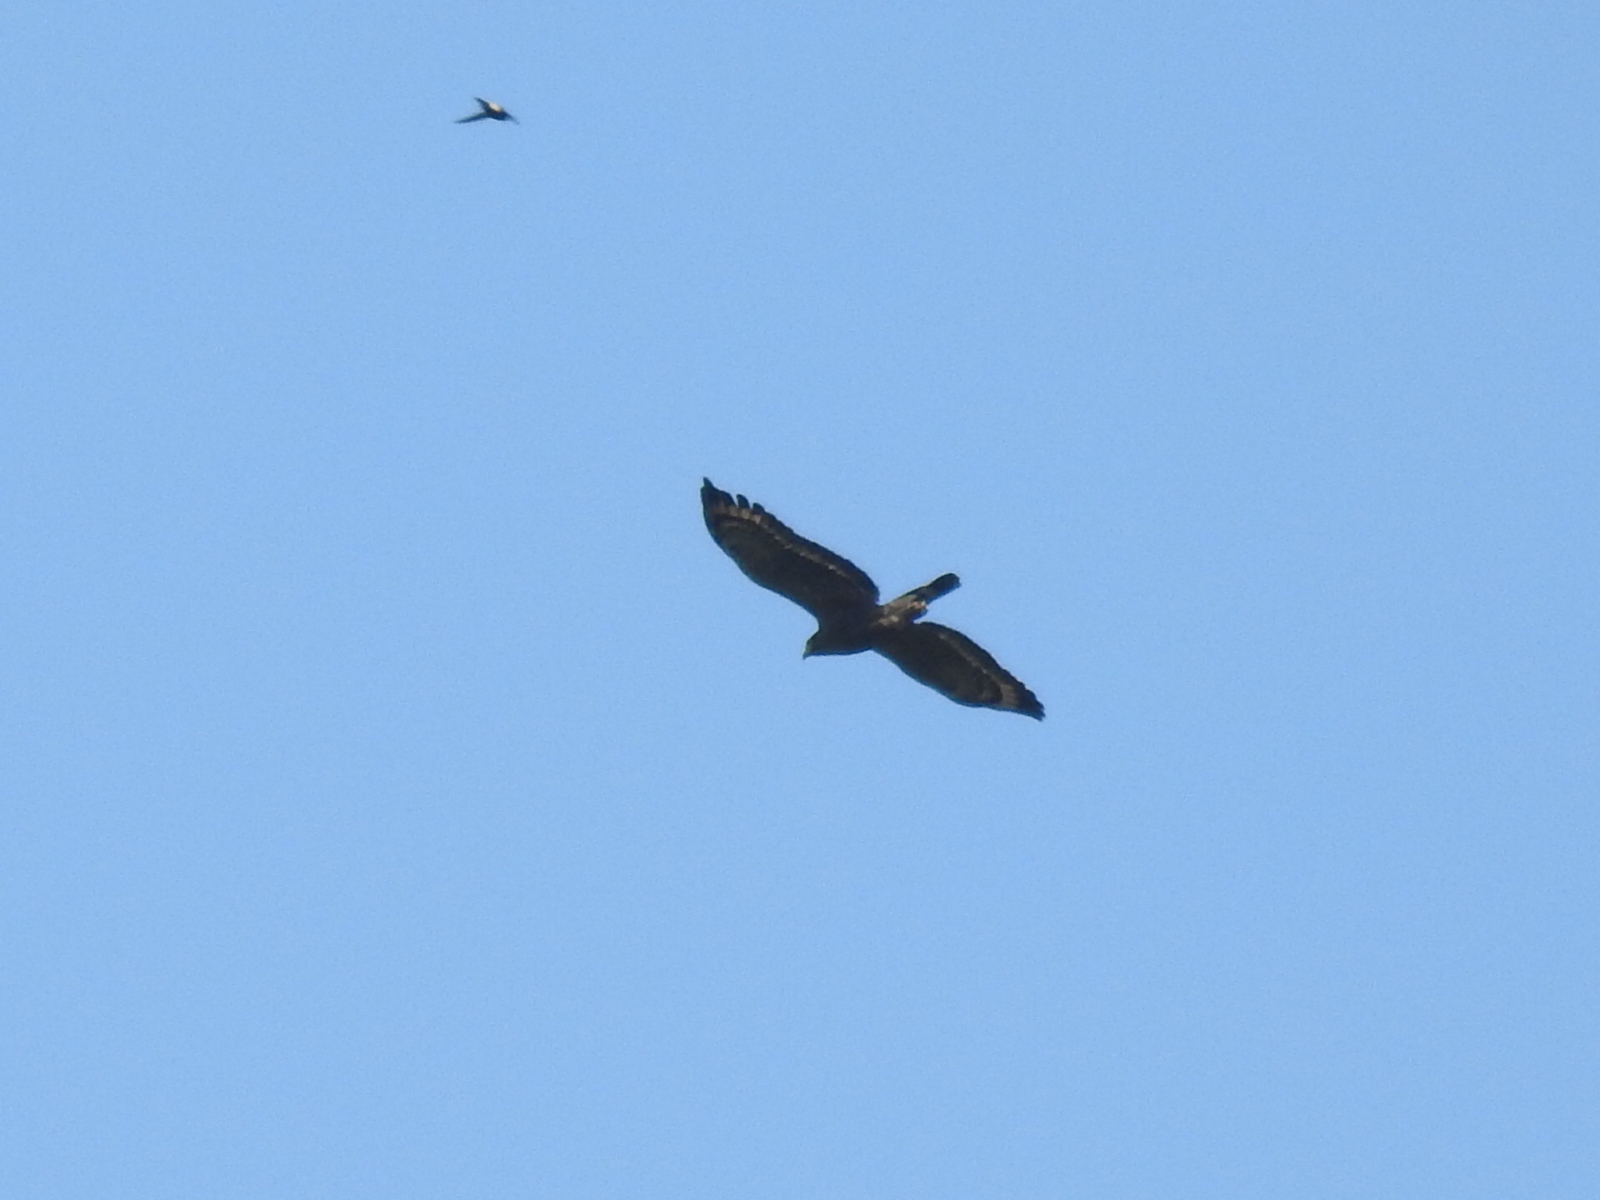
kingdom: Animalia
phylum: Chordata
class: Aves
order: Accipitriformes
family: Accipitridae
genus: Spilornis
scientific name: Spilornis cheela
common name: Crested serpent eagle
